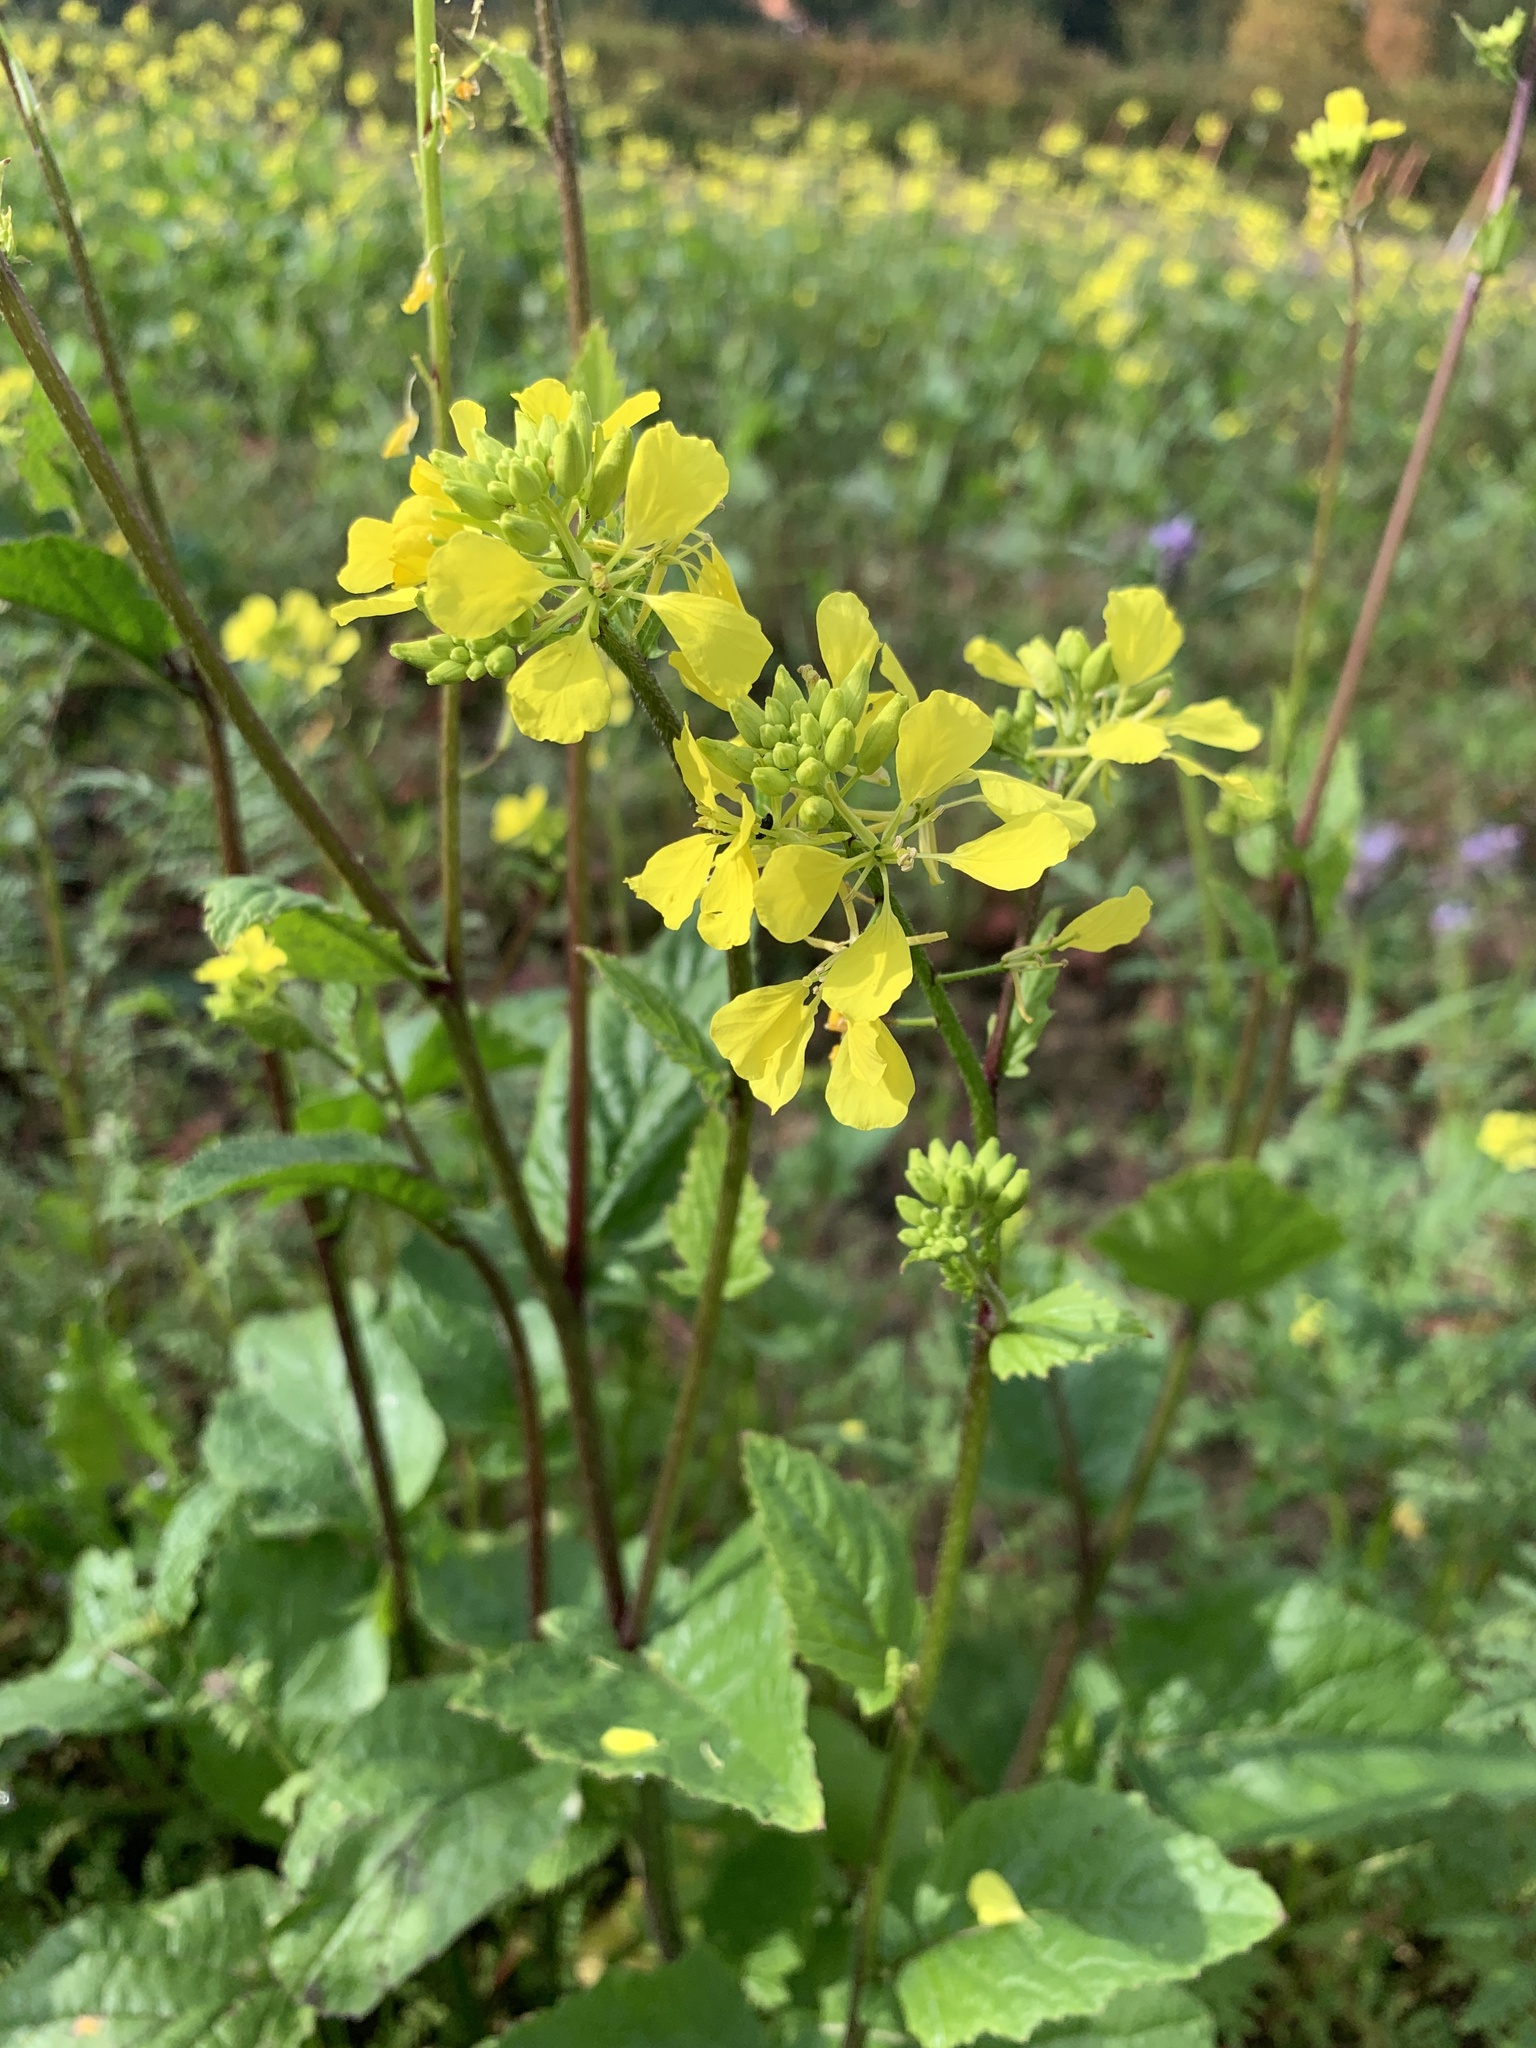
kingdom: Plantae
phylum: Tracheophyta
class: Magnoliopsida
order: Brassicales
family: Brassicaceae
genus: Sinapis
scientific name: Sinapis arvensis
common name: Charlock
